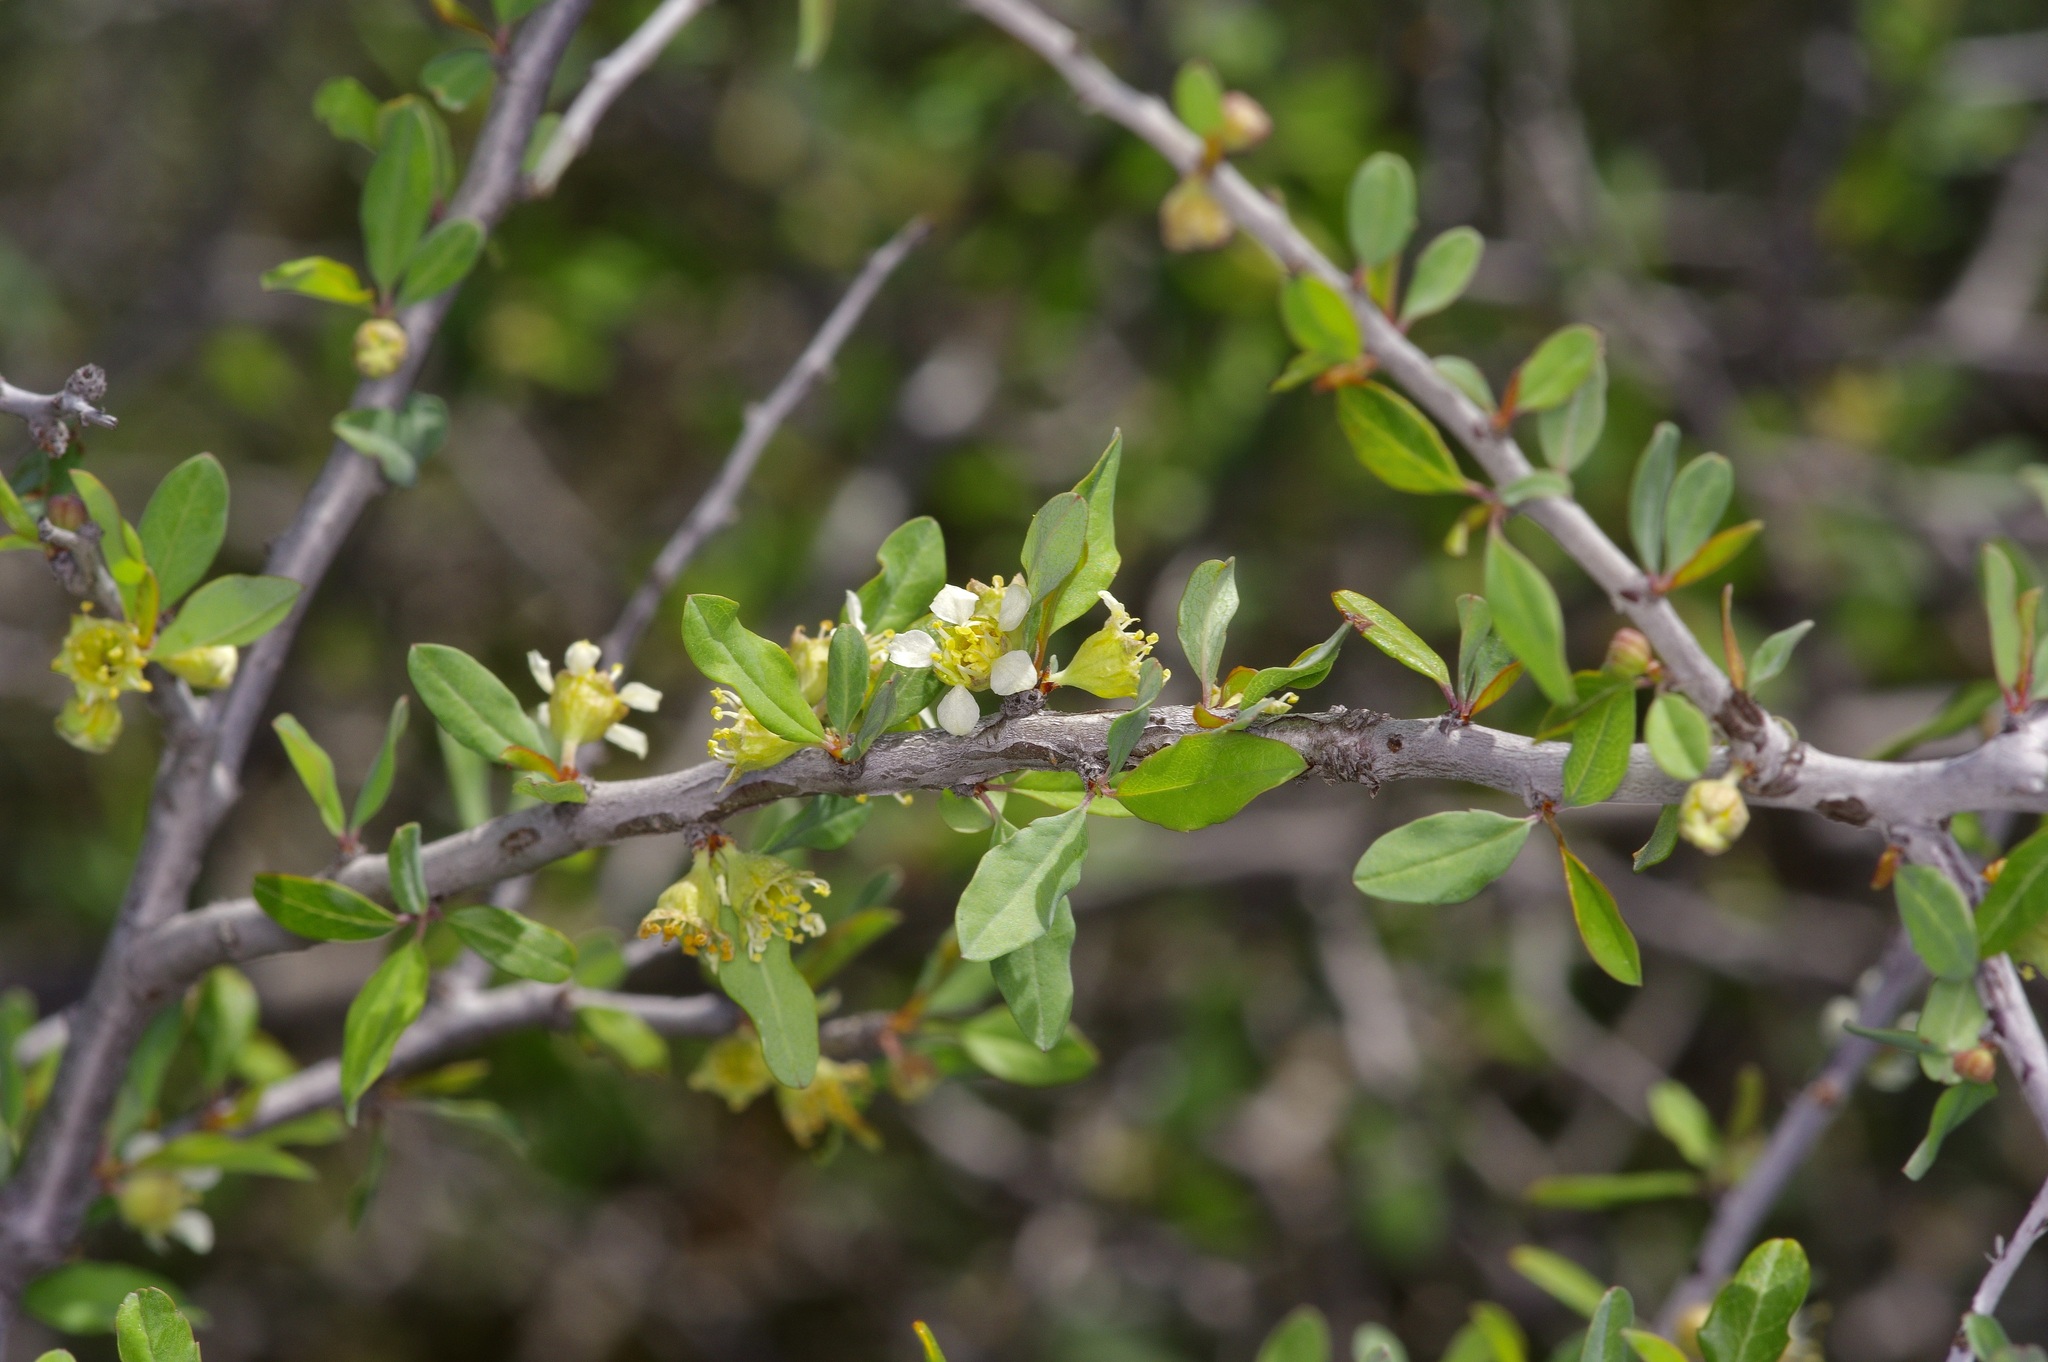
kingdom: Plantae
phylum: Tracheophyta
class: Magnoliopsida
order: Rosales
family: Rosaceae
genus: Prunus
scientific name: Prunus minutiflora
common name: Texas almond
